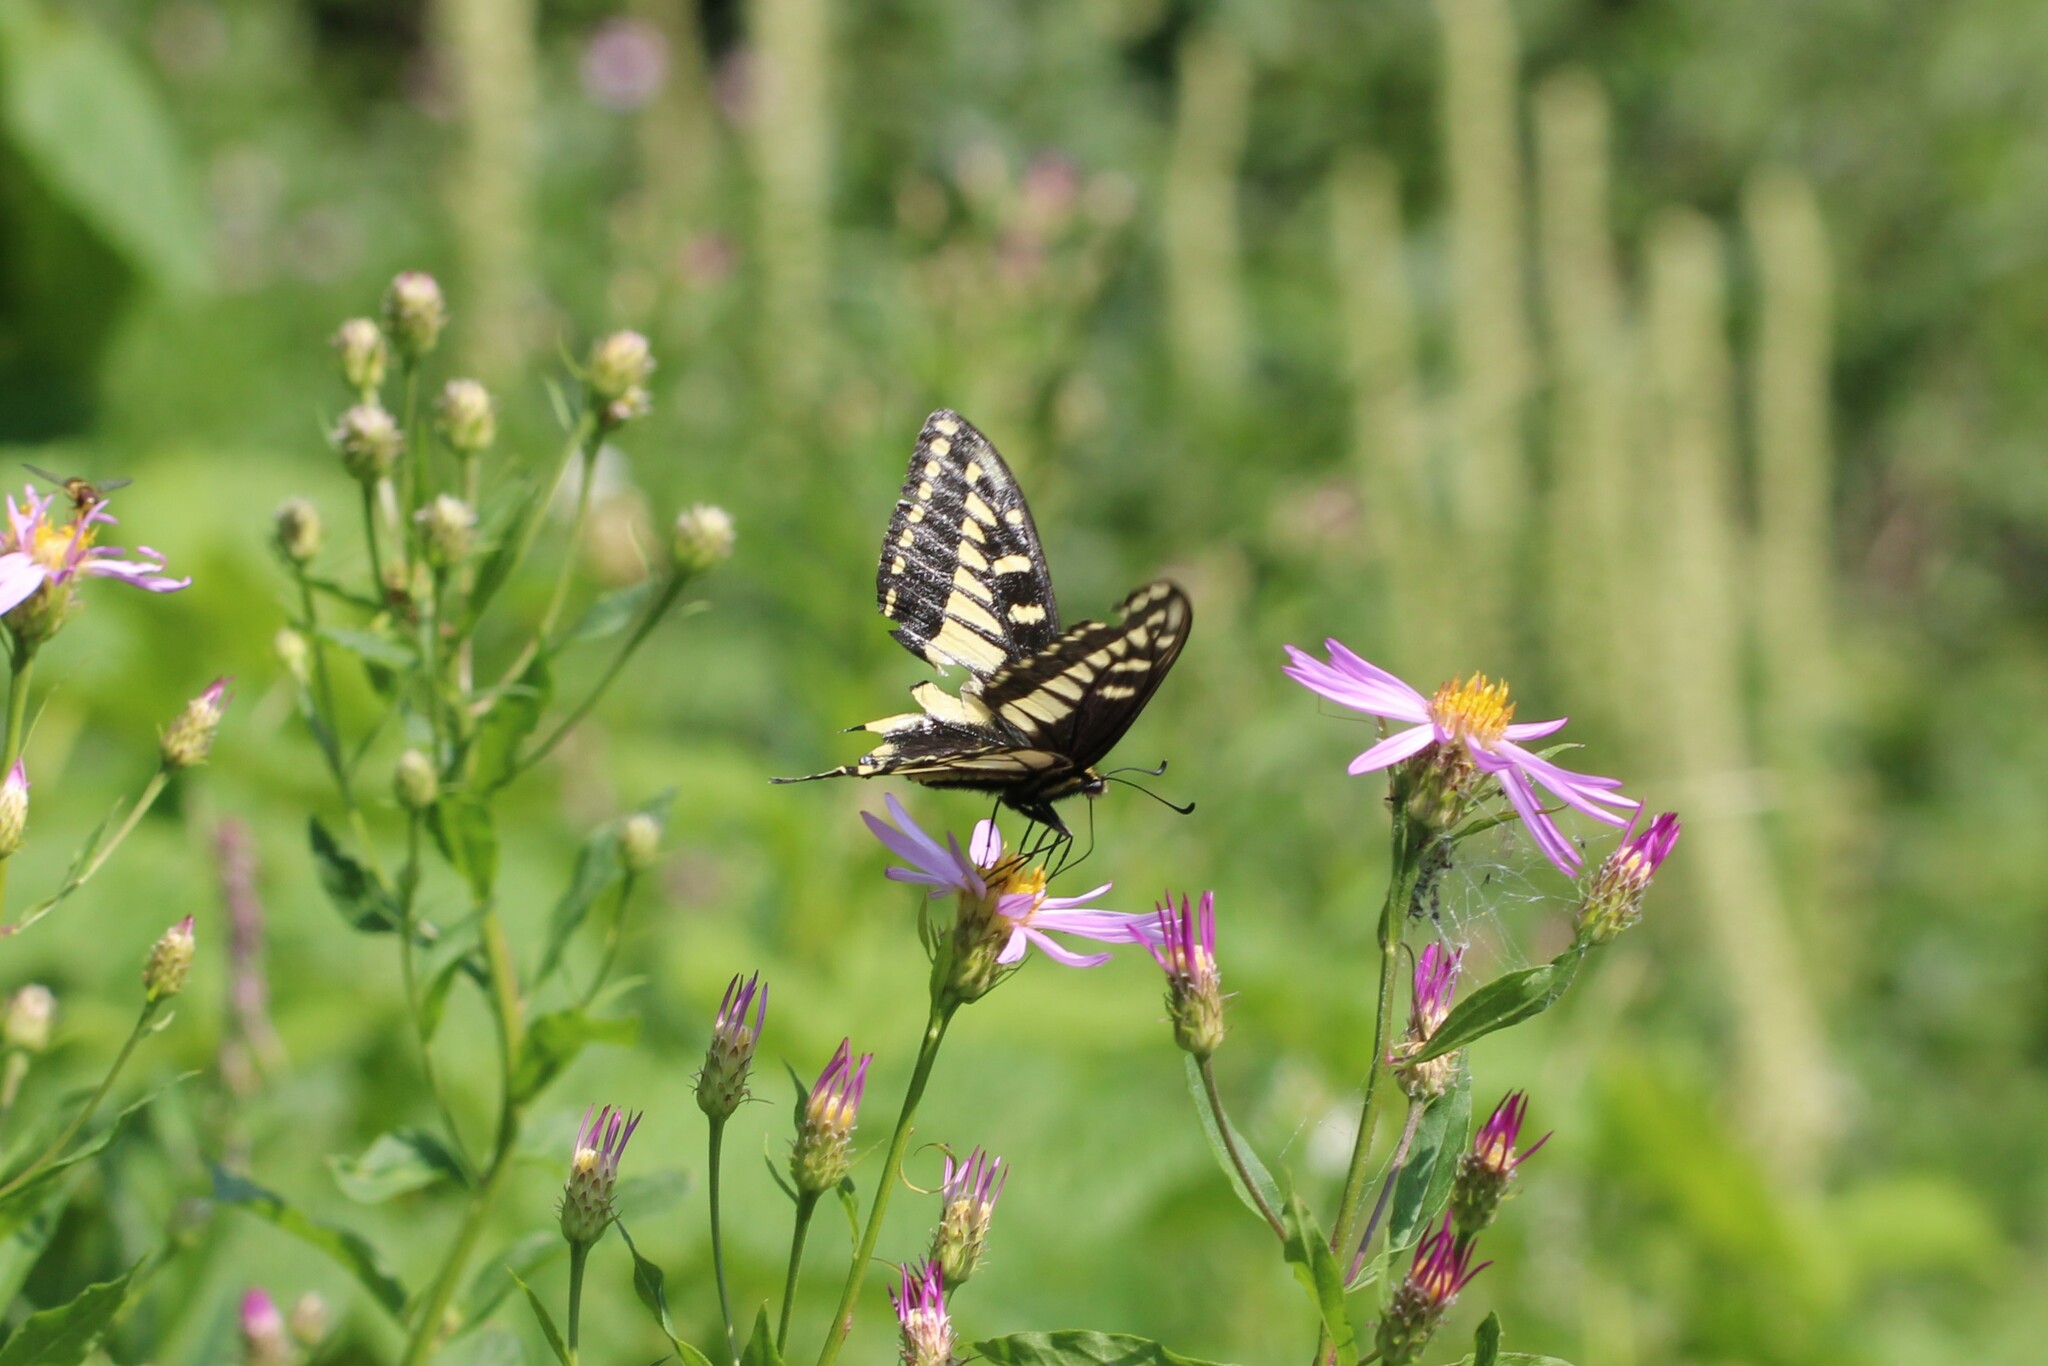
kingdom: Animalia
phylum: Arthropoda
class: Insecta
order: Lepidoptera
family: Papilionidae
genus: Papilio
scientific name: Papilio zelicaon
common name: Anise swallowtail
